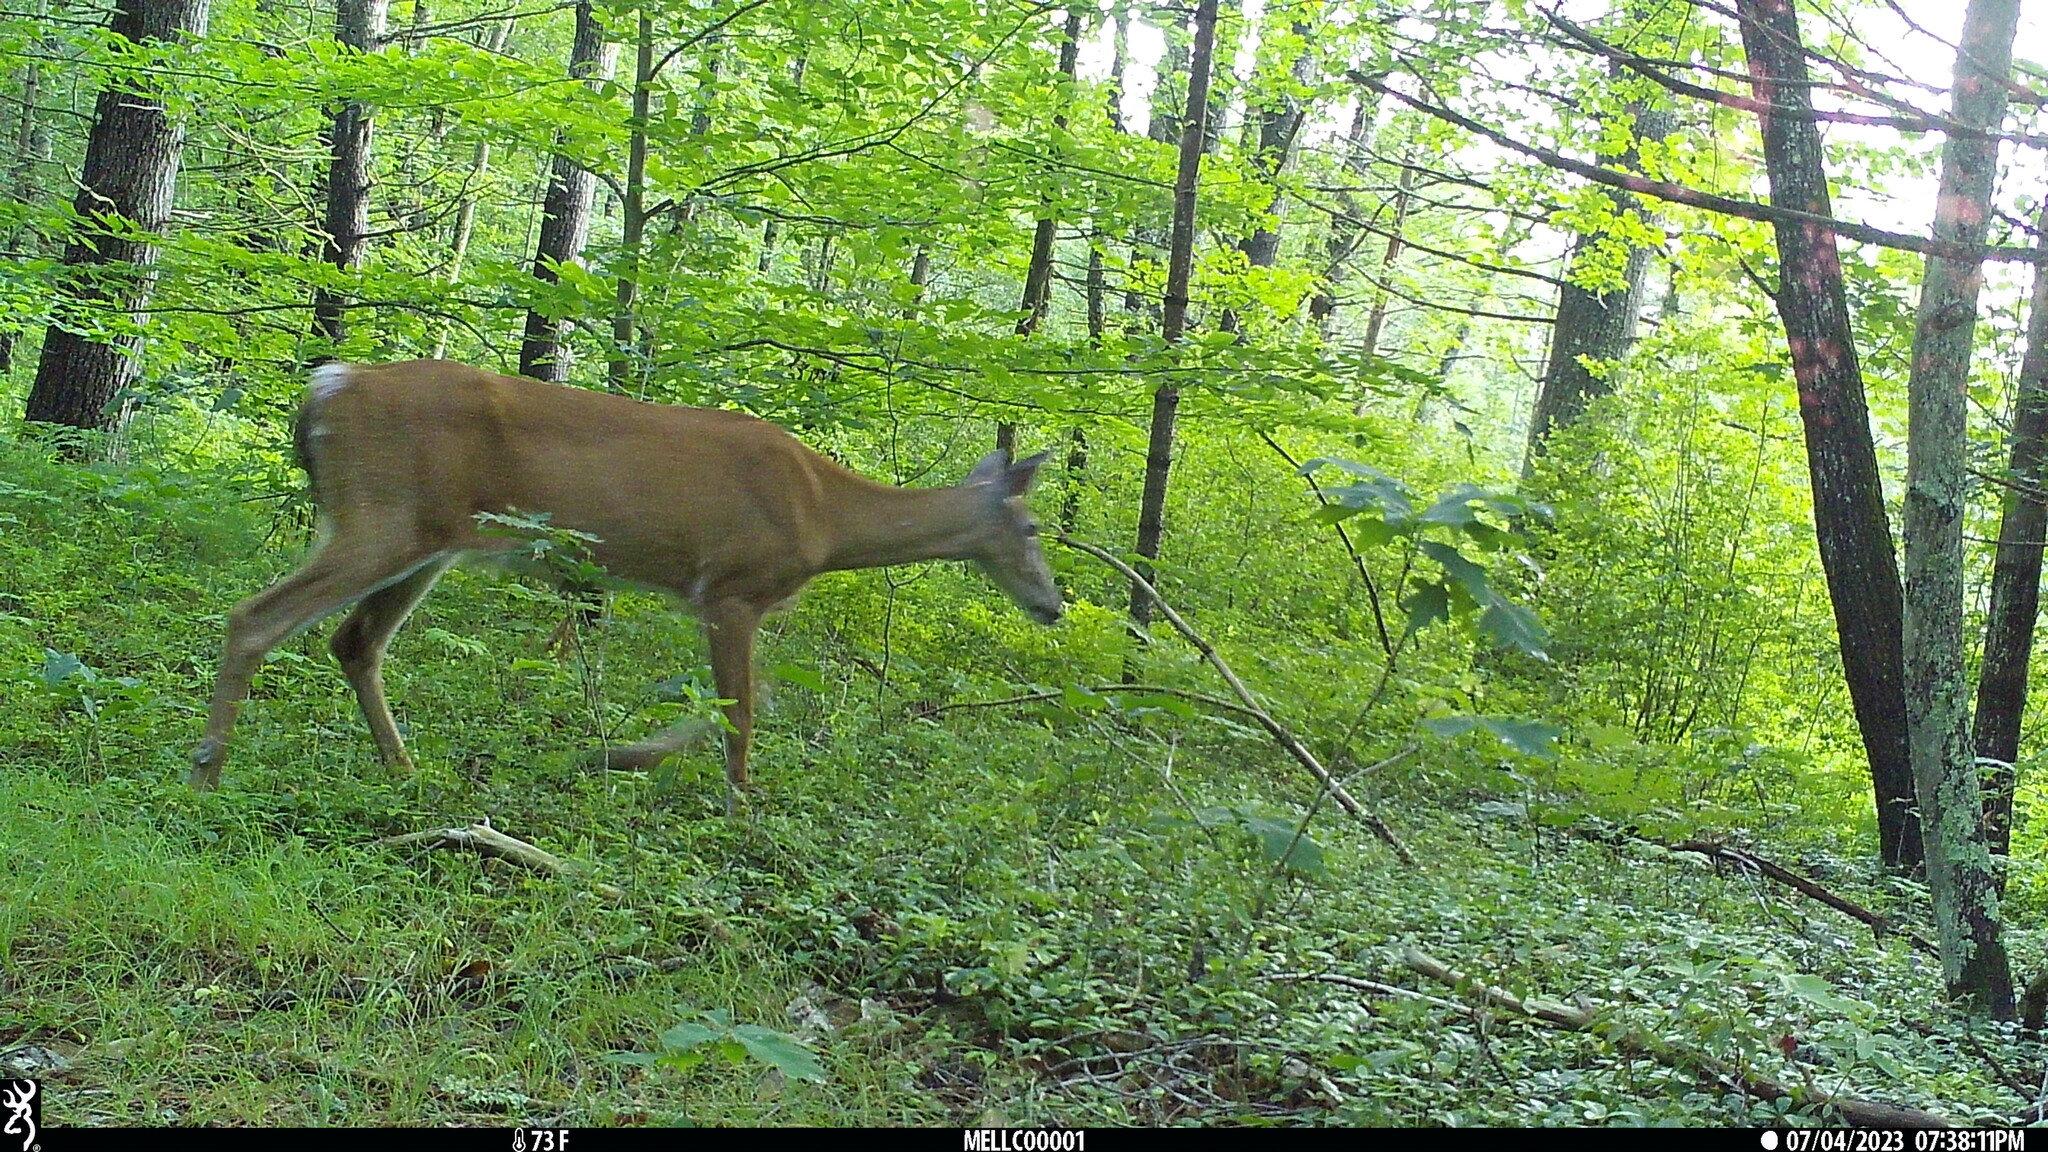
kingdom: Animalia
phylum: Chordata
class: Mammalia
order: Artiodactyla
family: Cervidae
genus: Odocoileus
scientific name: Odocoileus virginianus
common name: White-tailed deer
